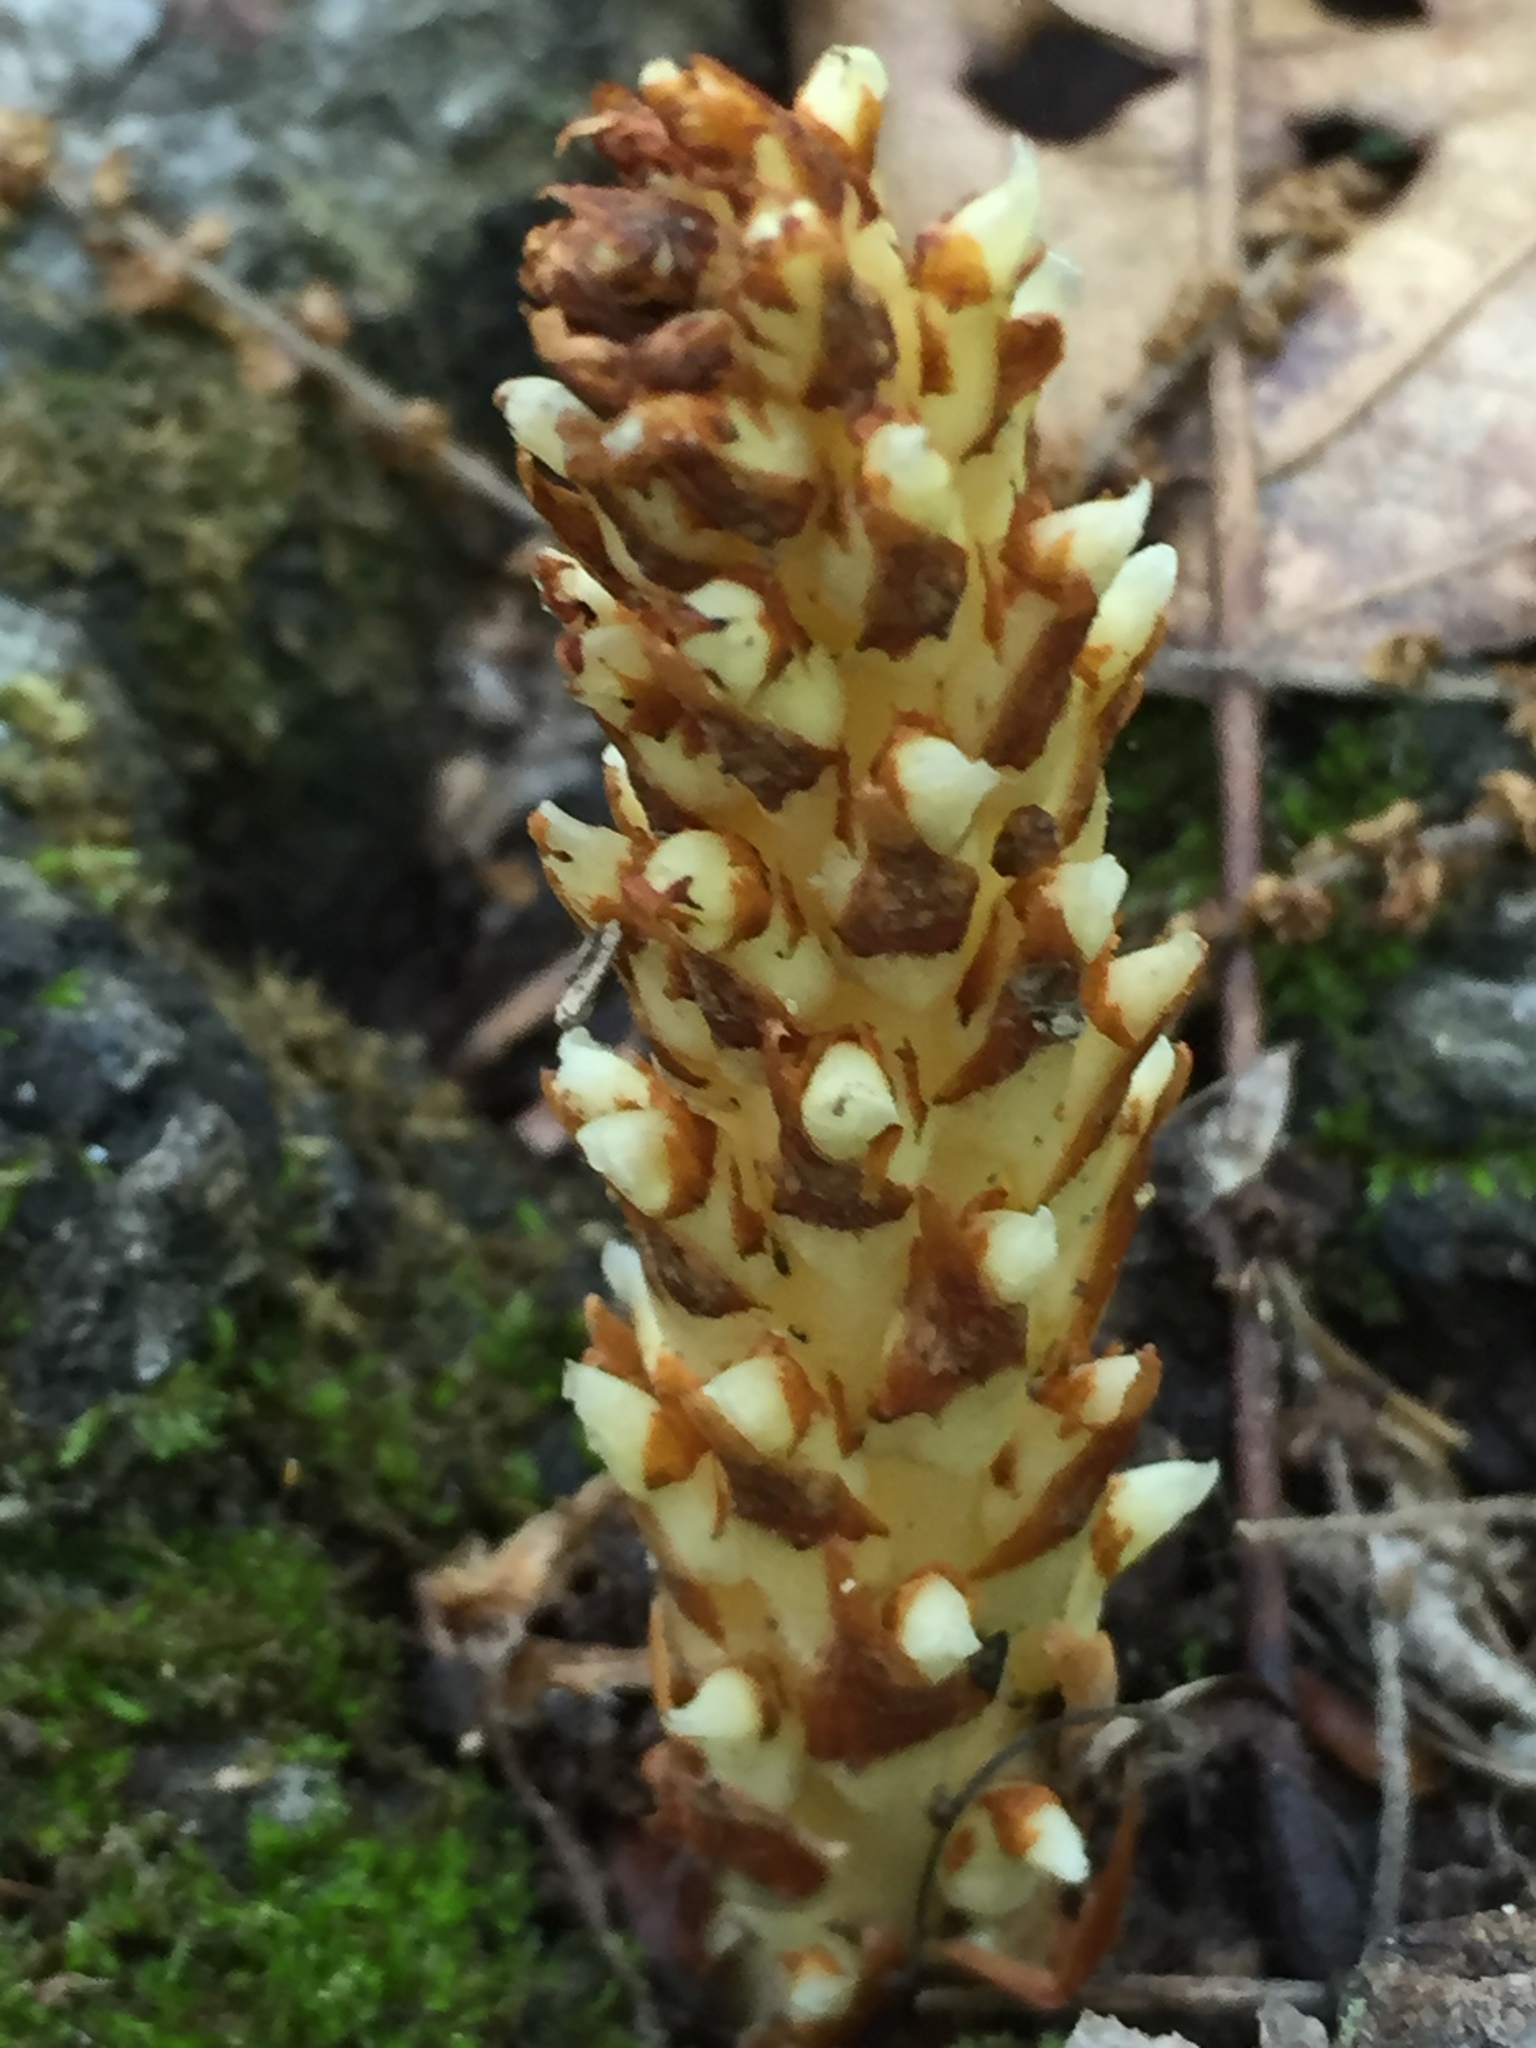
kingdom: Plantae
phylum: Tracheophyta
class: Magnoliopsida
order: Lamiales
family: Orobanchaceae
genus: Conopholis
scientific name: Conopholis americana
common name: American cancer-root
